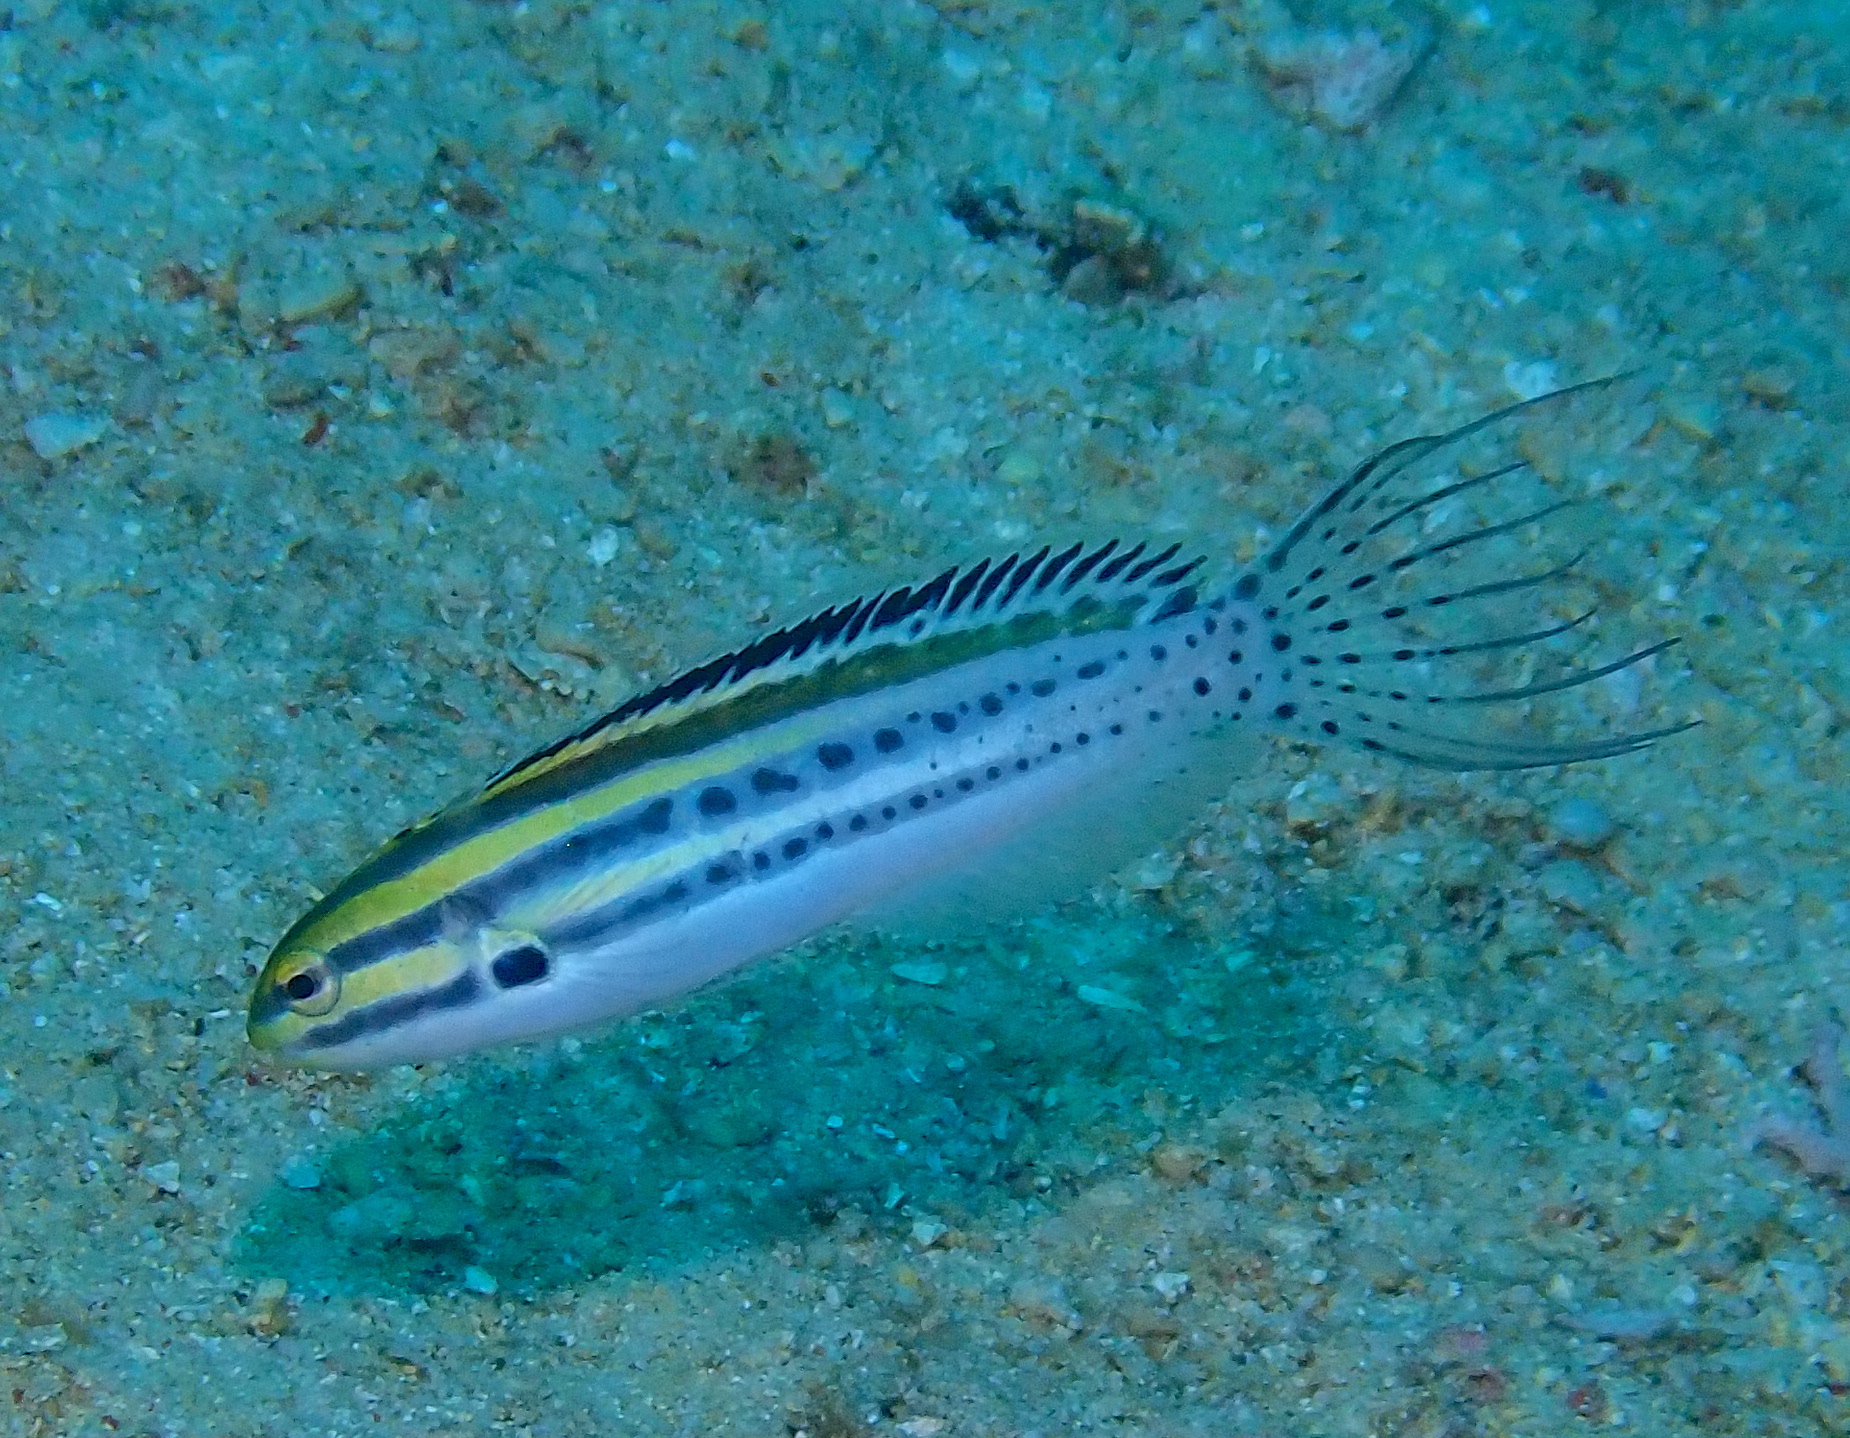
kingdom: Animalia
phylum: Chordata
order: Perciformes
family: Blenniidae
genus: Meiacanthus
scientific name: Meiacanthus grammistes
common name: Grammistes blenny
